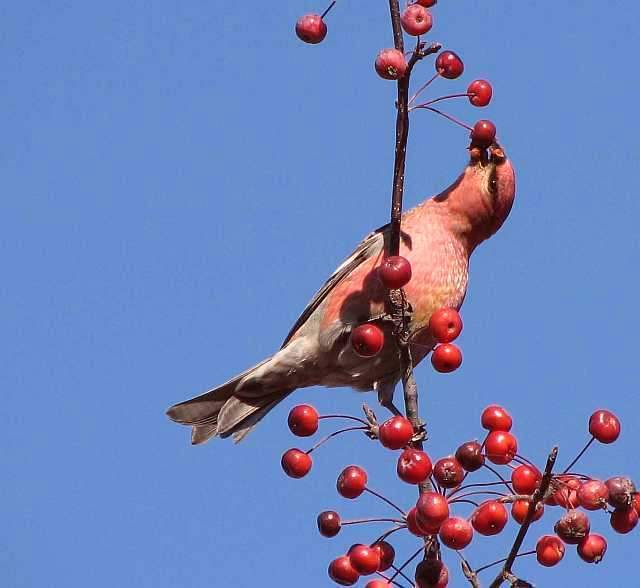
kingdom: Animalia
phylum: Chordata
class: Aves
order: Passeriformes
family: Fringillidae
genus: Pinicola
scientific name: Pinicola enucleator
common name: Pine grosbeak
